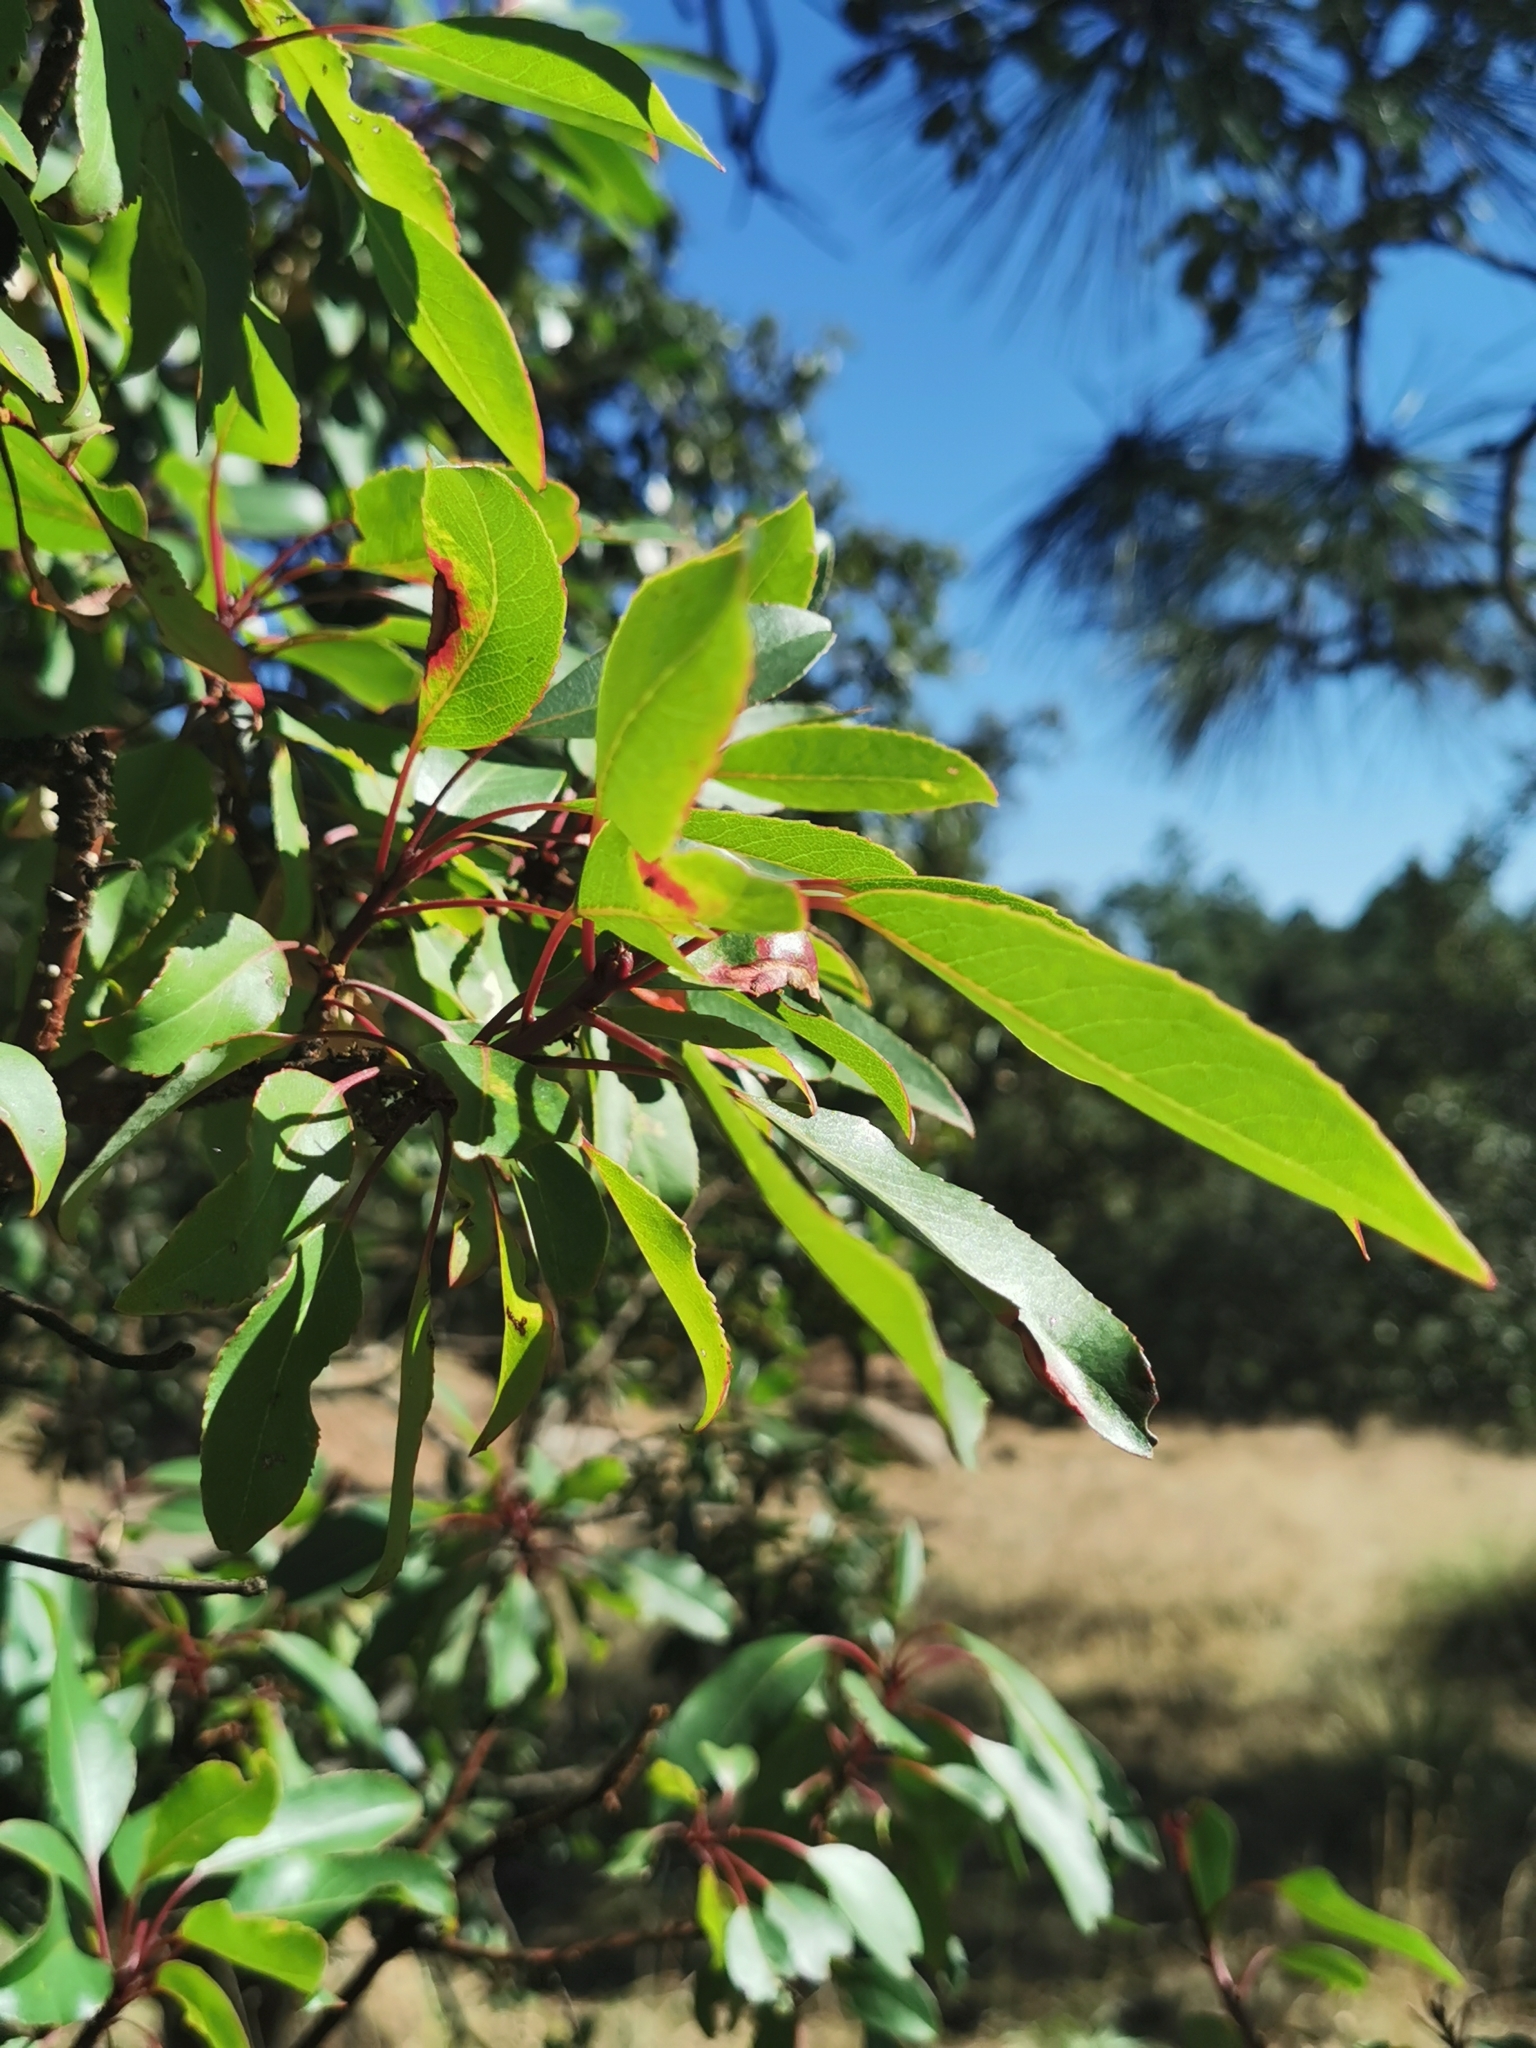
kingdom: Plantae
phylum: Tracheophyta
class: Magnoliopsida
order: Ericales
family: Ericaceae
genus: Arbutus
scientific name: Arbutus arizonica
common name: Arizona madrone
